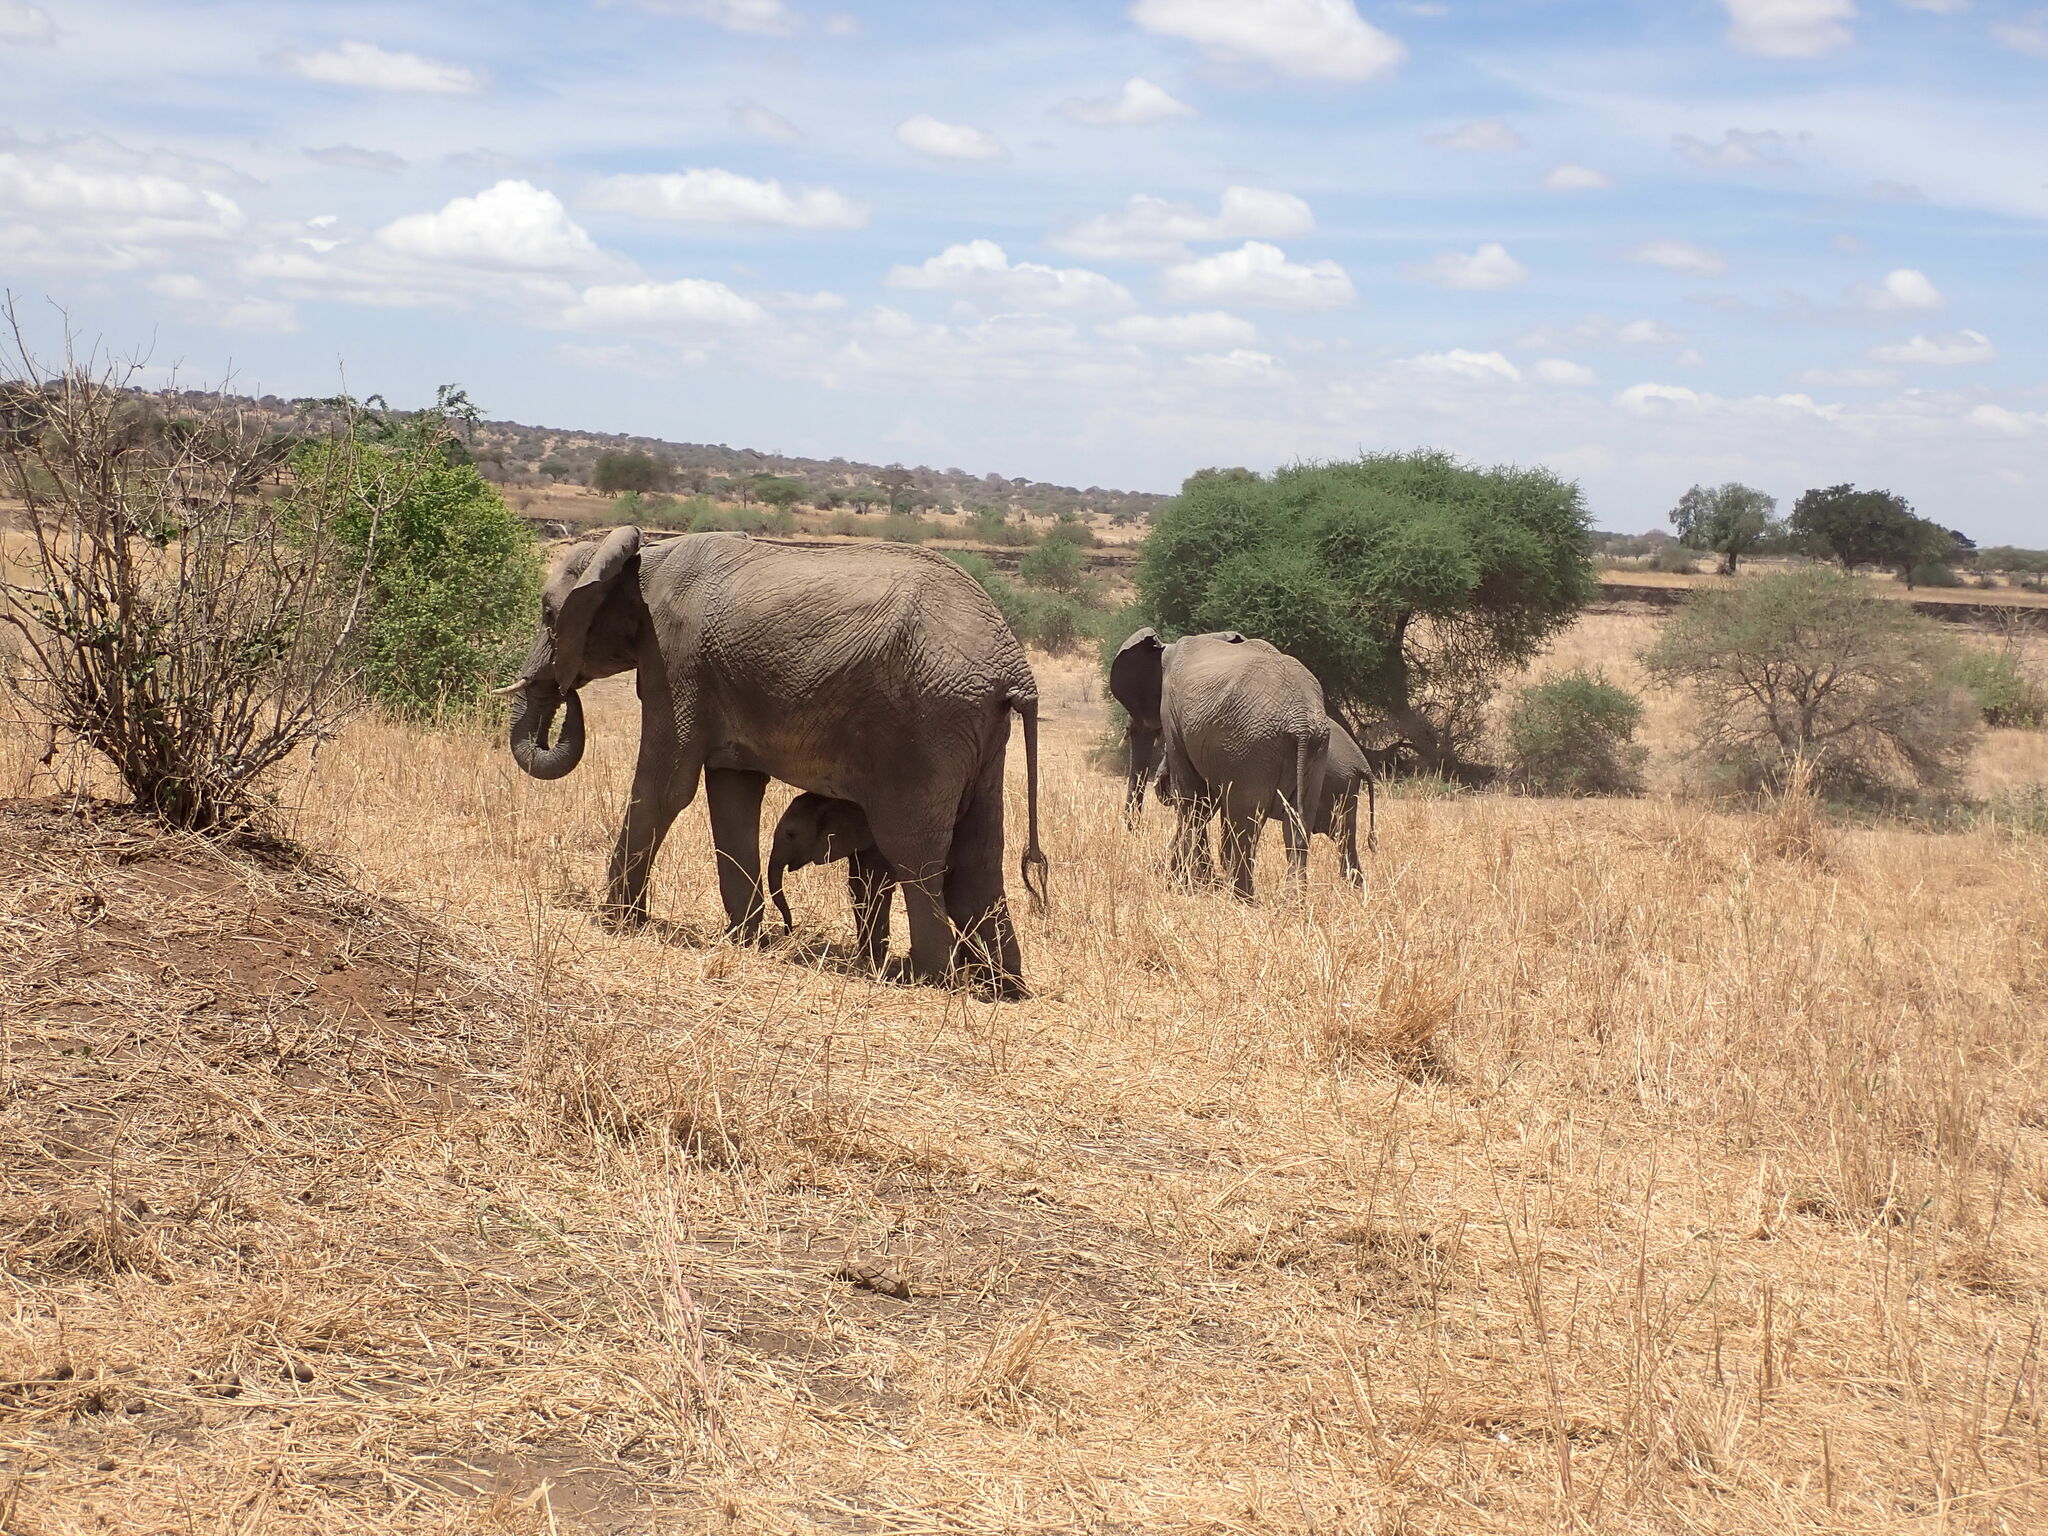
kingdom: Animalia
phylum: Chordata
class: Mammalia
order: Proboscidea
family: Elephantidae
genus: Loxodonta
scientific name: Loxodonta africana
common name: African elephant
